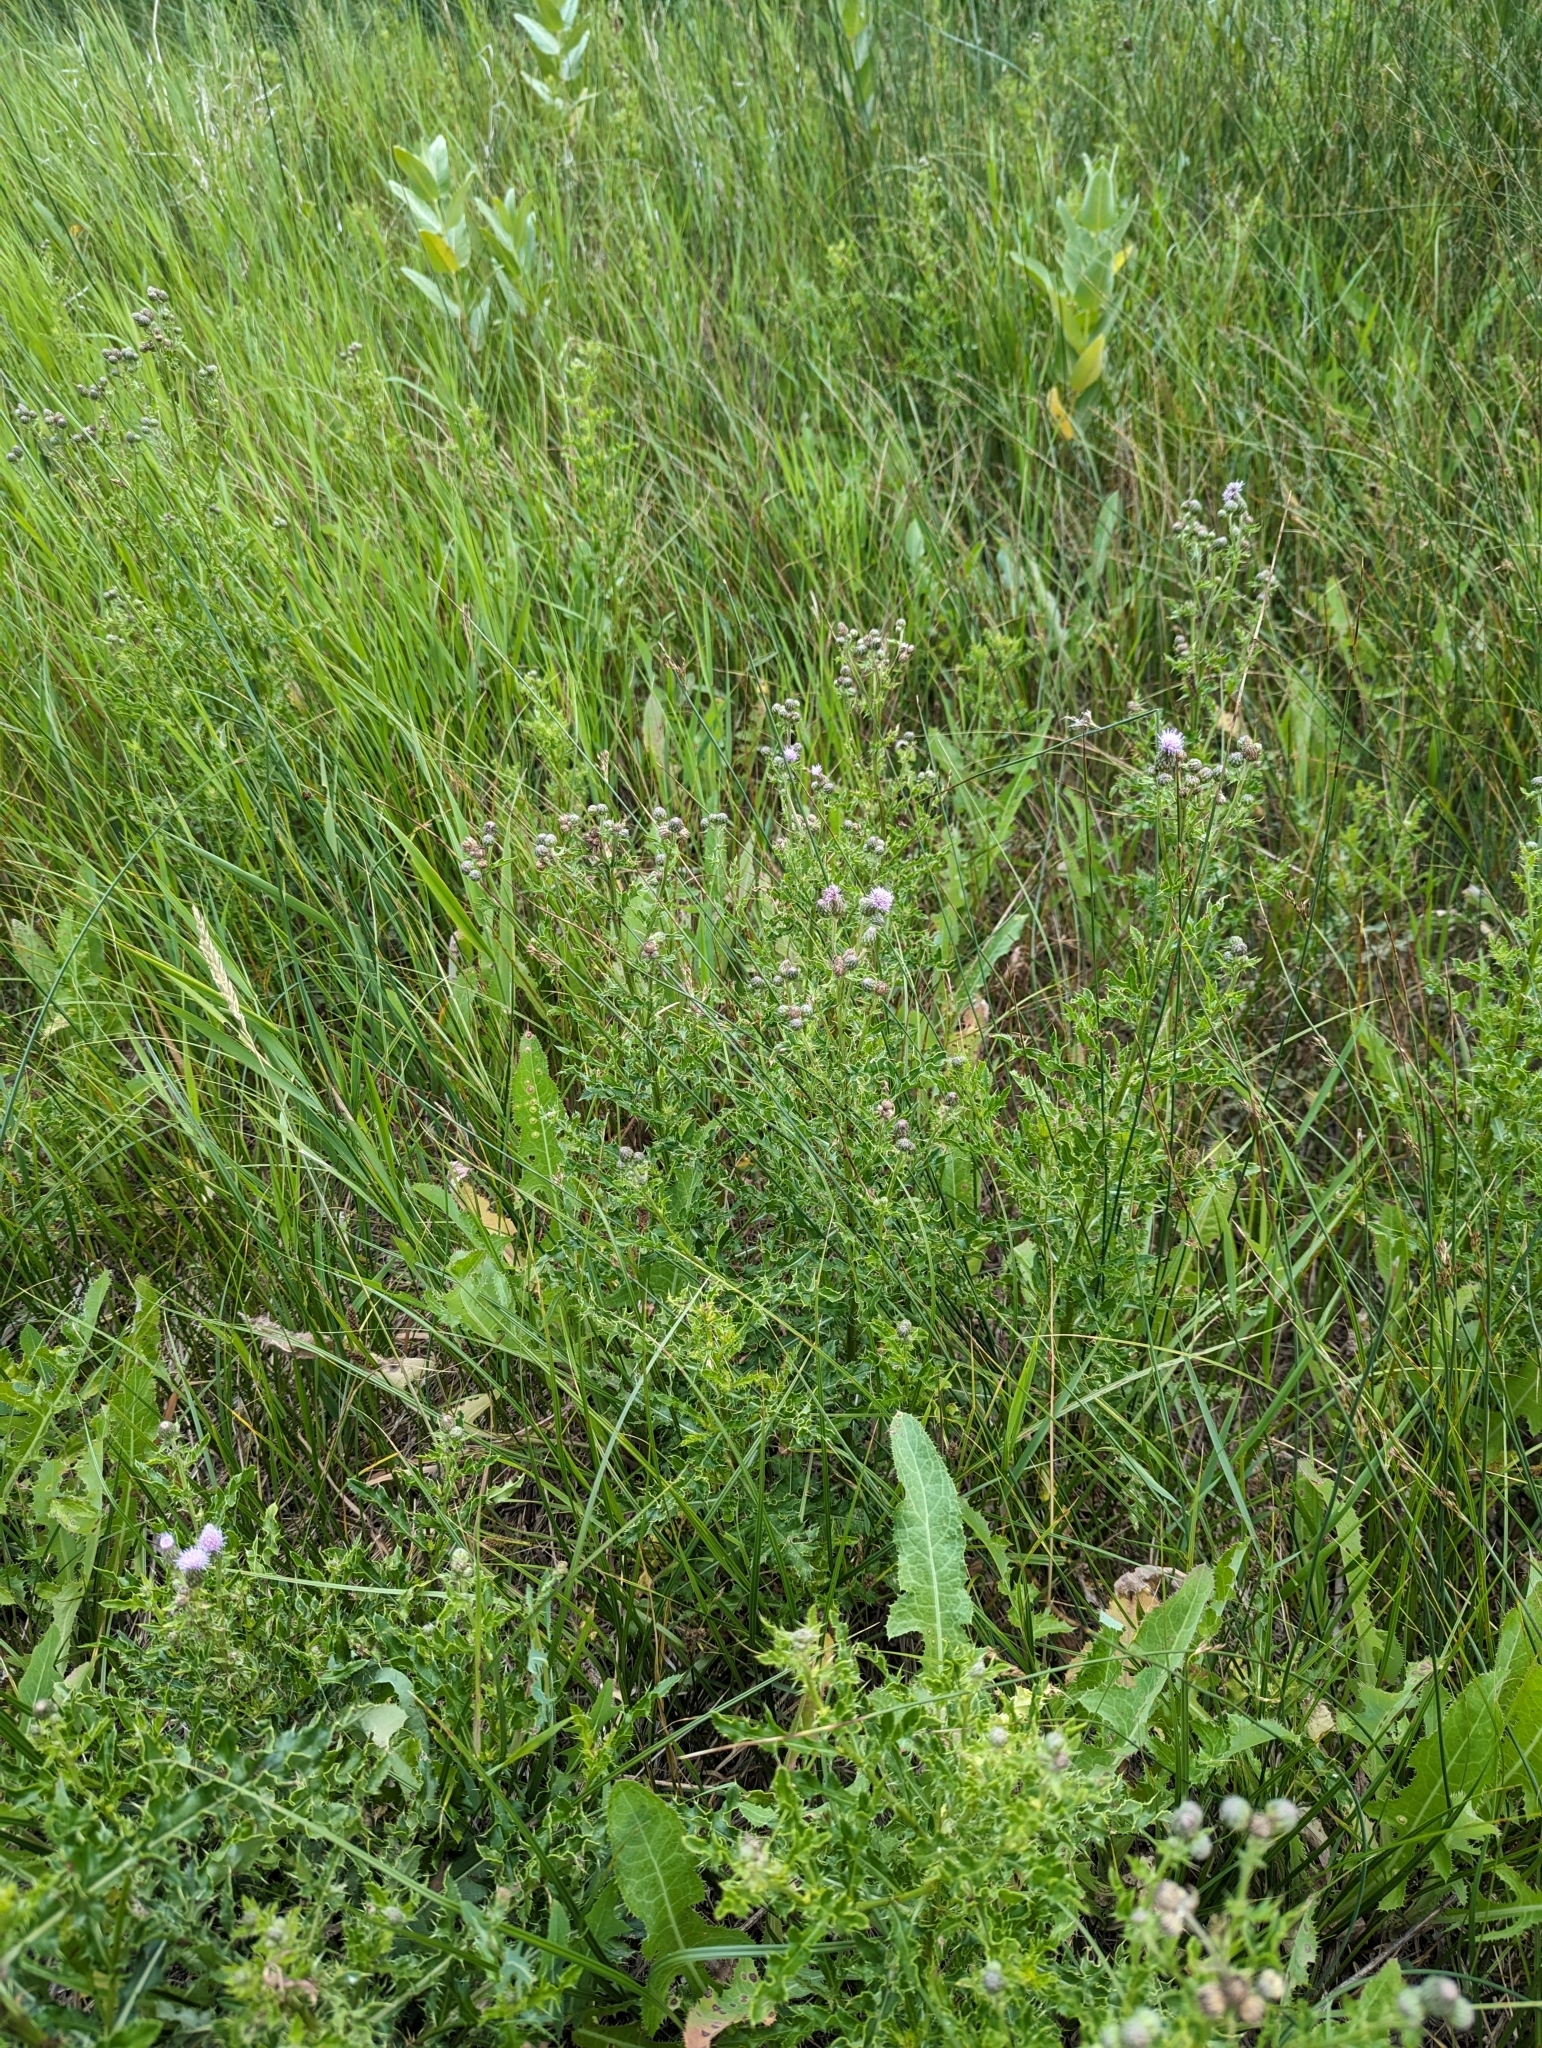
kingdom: Plantae
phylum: Tracheophyta
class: Magnoliopsida
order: Asterales
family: Asteraceae
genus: Cirsium
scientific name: Cirsium arvense
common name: Creeping thistle
